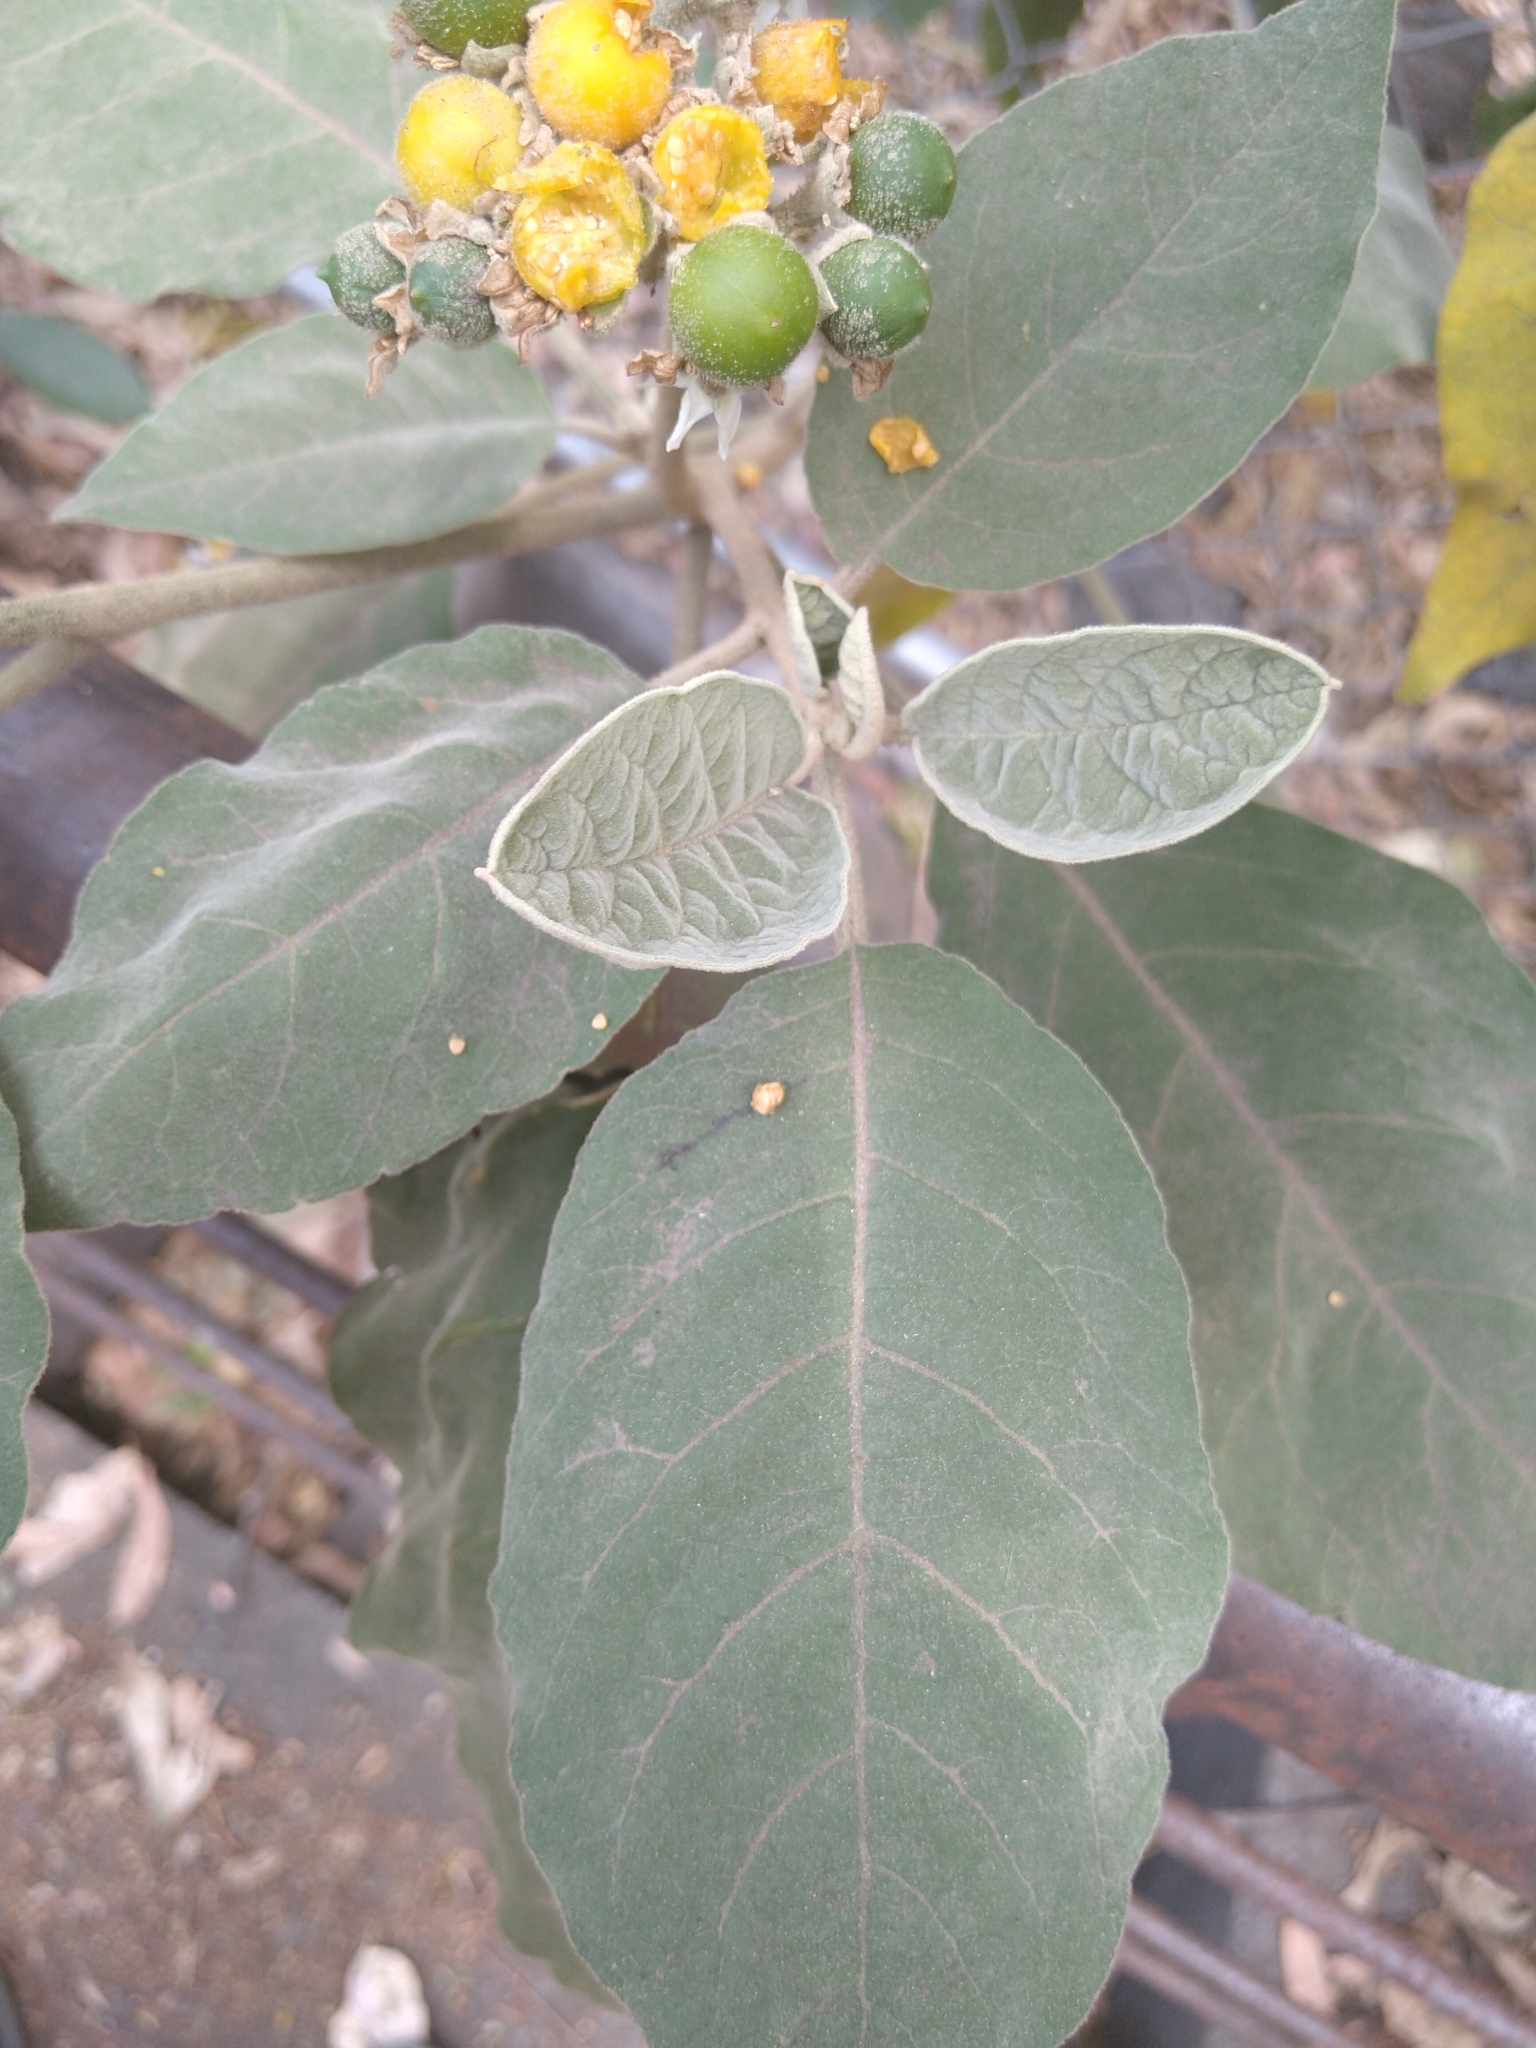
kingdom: Plantae
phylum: Tracheophyta
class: Magnoliopsida
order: Solanales
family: Solanaceae
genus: Solanum
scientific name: Solanum erianthum
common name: Tobacco-tree
